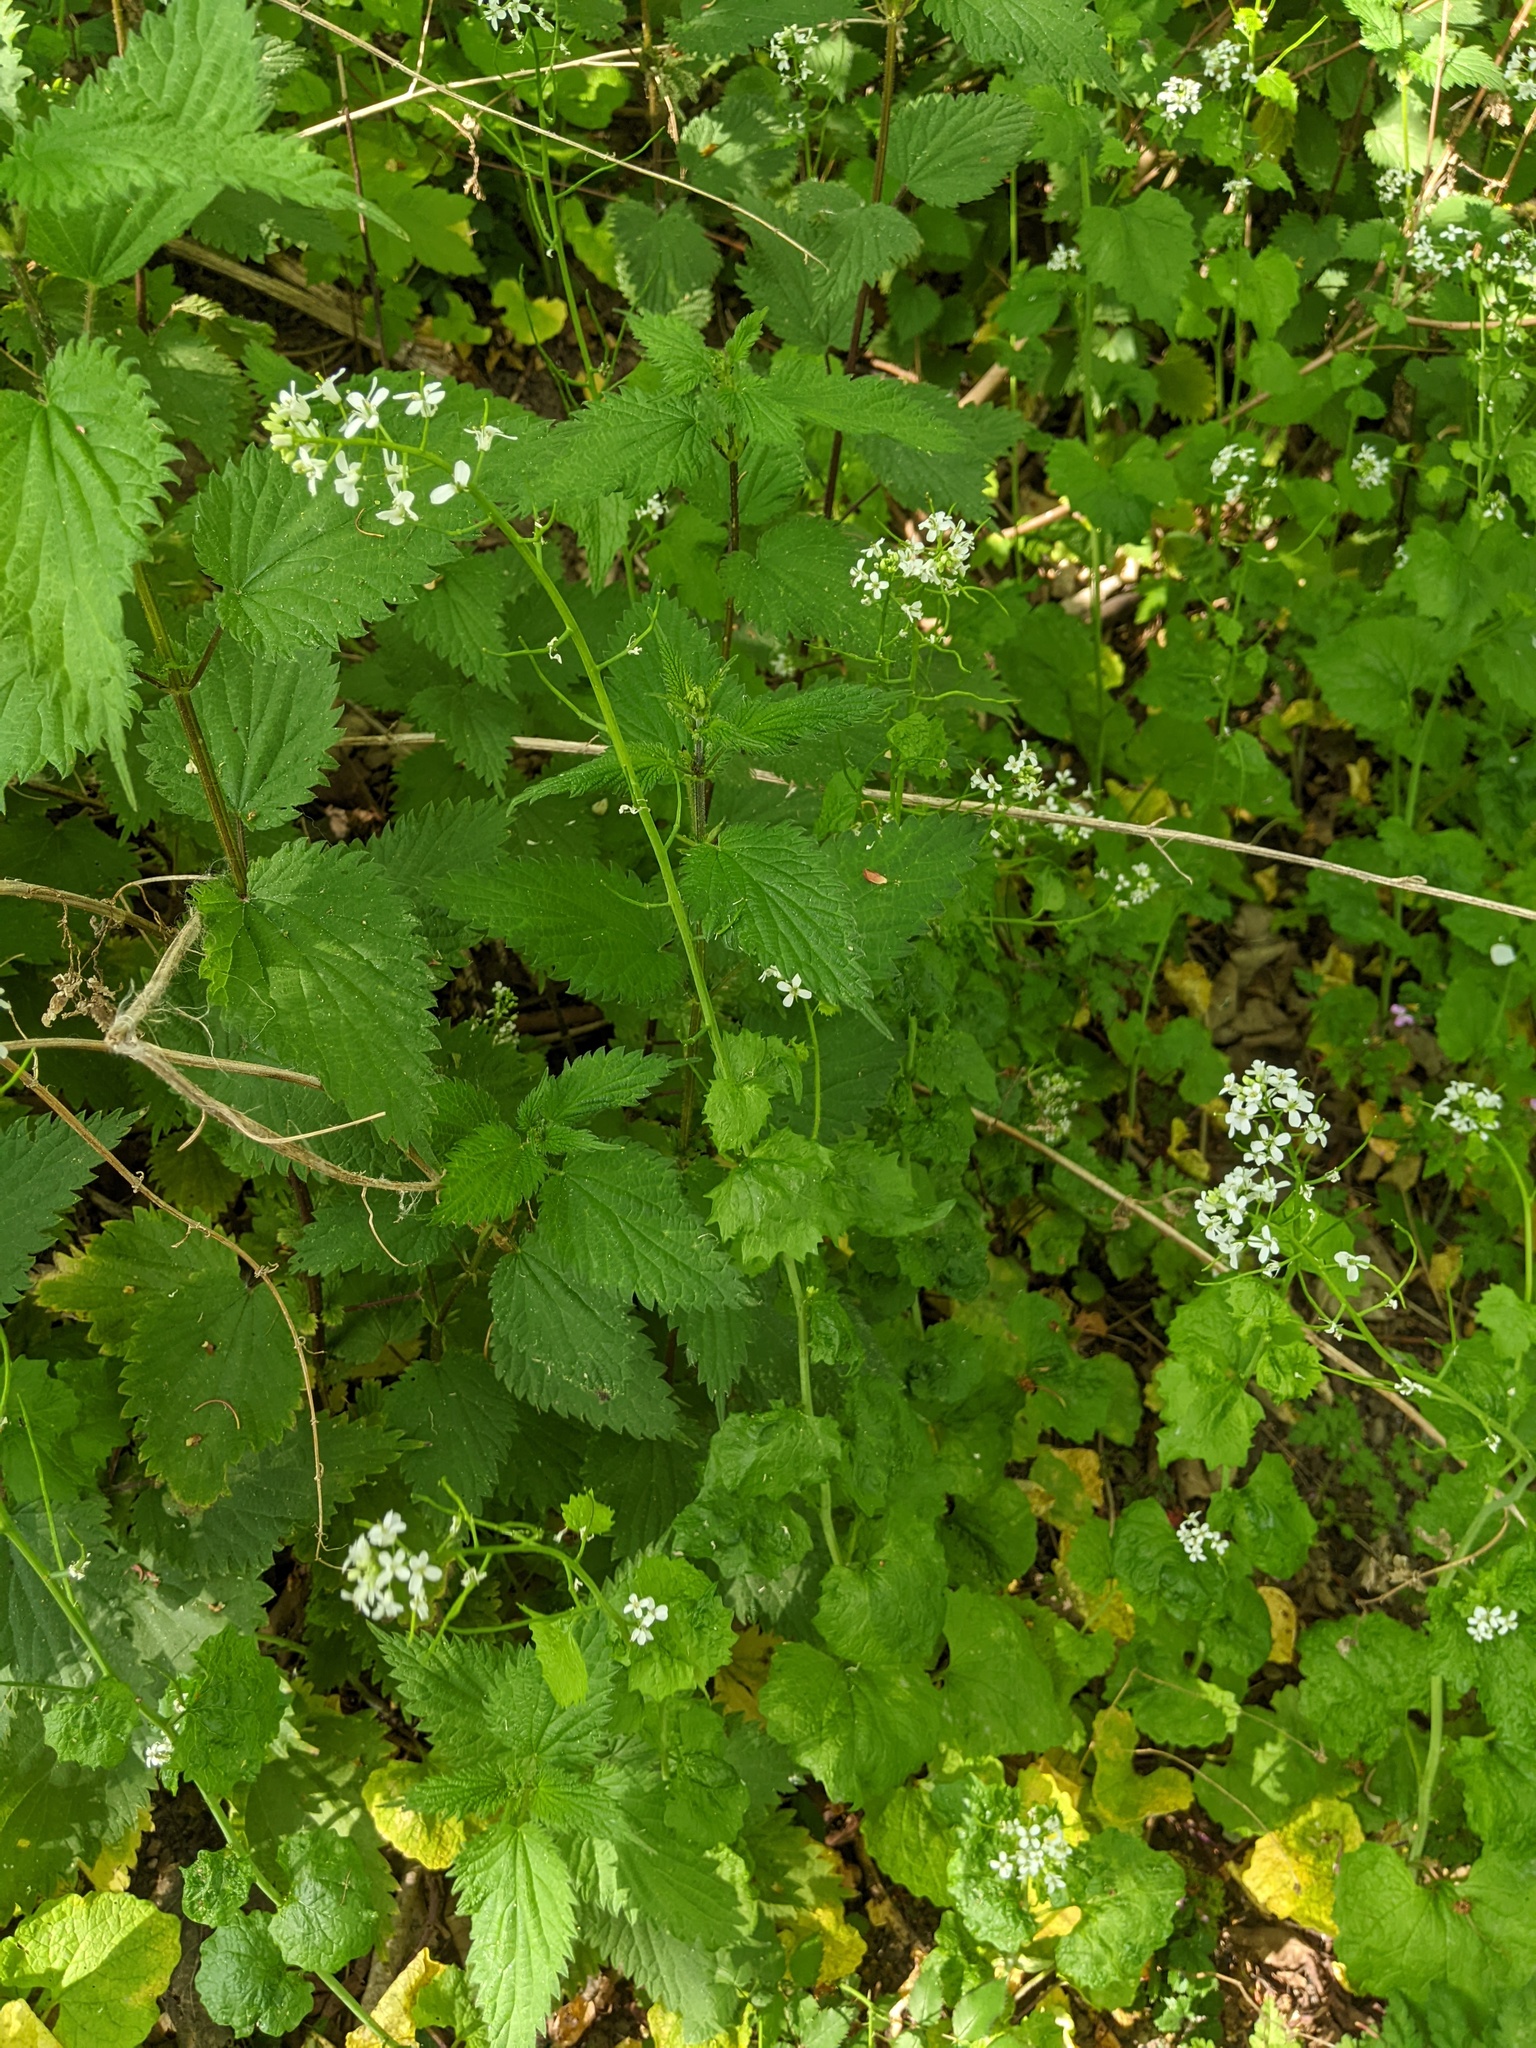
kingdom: Plantae
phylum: Tracheophyta
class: Magnoliopsida
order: Brassicales
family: Brassicaceae
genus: Alliaria
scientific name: Alliaria petiolata
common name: Garlic mustard
